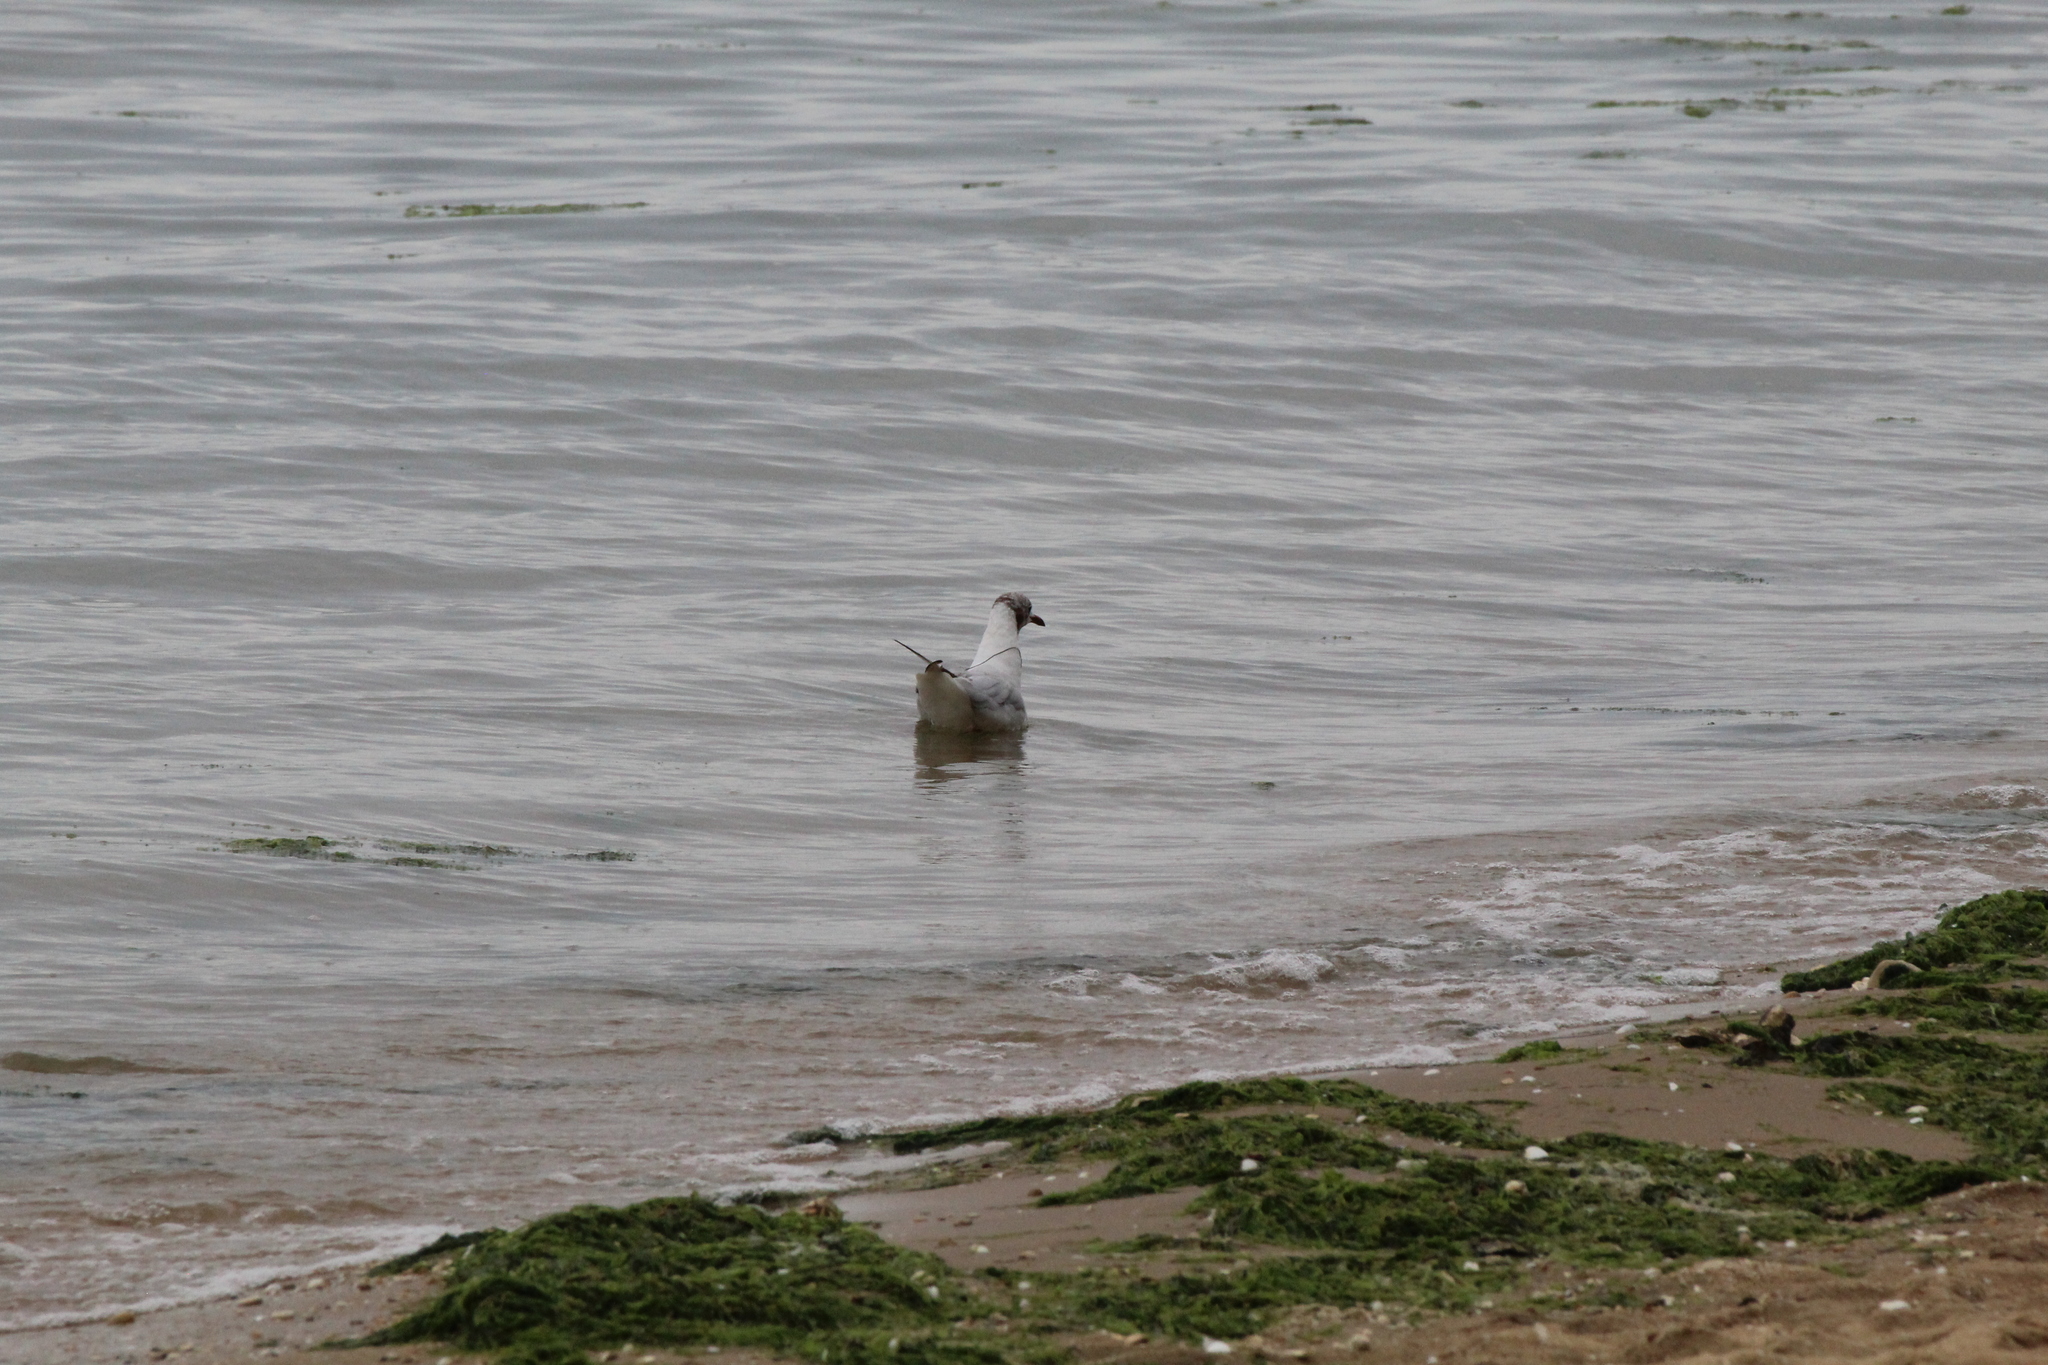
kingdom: Animalia
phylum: Chordata
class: Aves
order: Charadriiformes
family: Laridae
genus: Chroicocephalus
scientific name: Chroicocephalus ridibundus
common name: Black-headed gull
